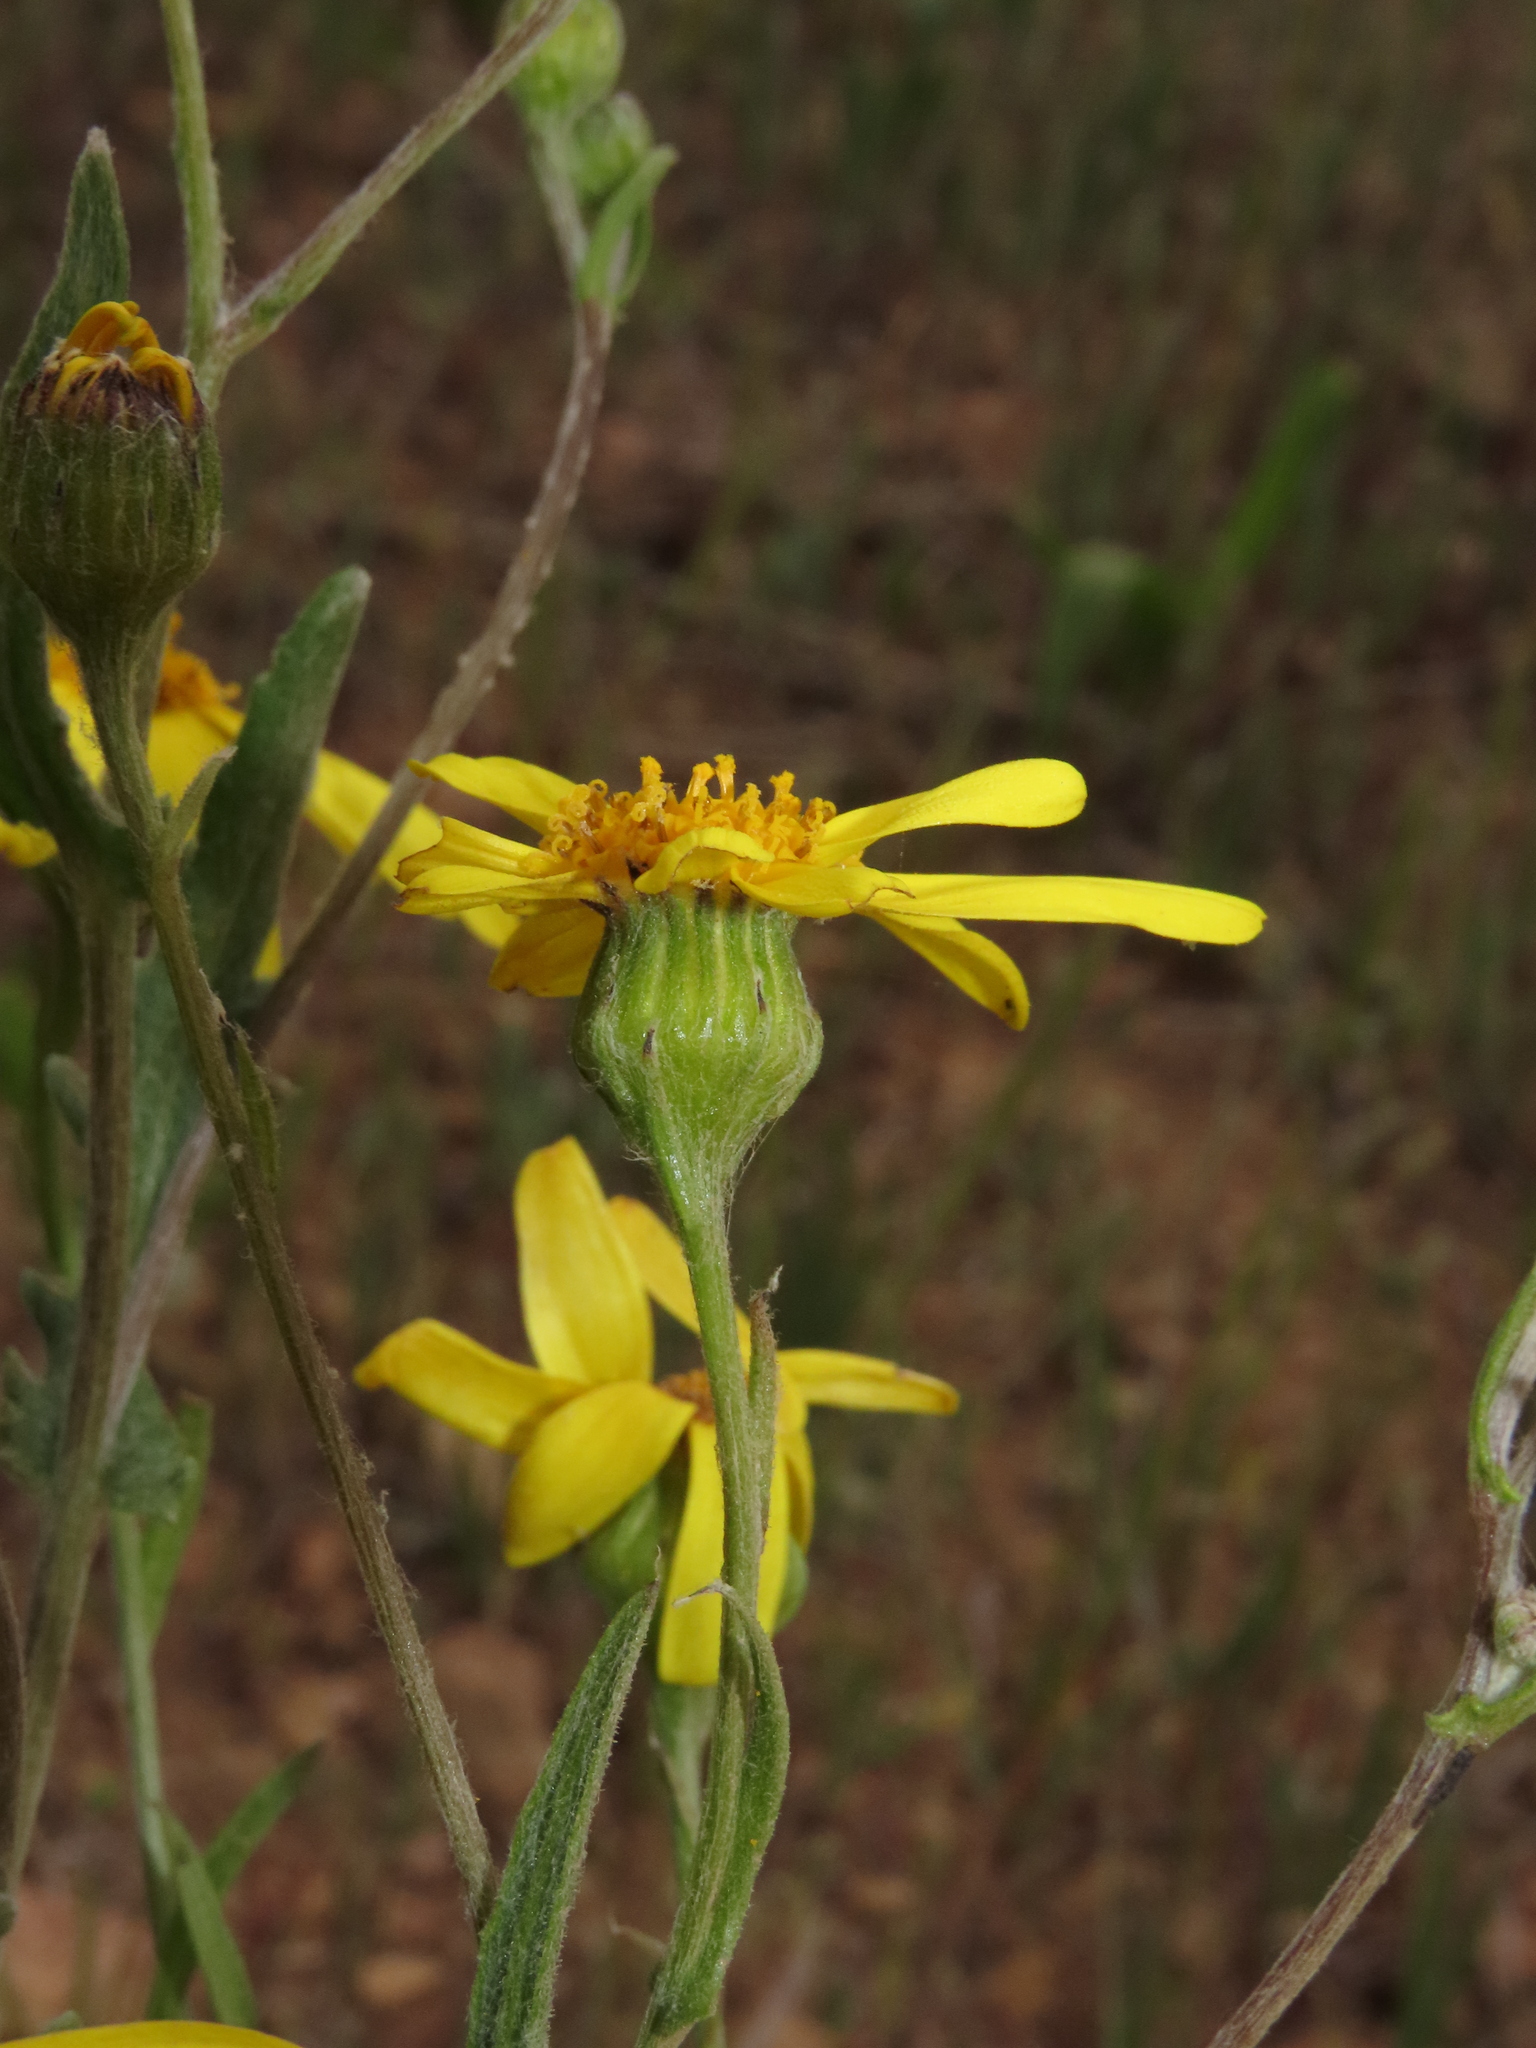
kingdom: Plantae
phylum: Tracheophyta
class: Magnoliopsida
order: Asterales
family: Asteraceae
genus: Senecio
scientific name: Senecio brunonianus
